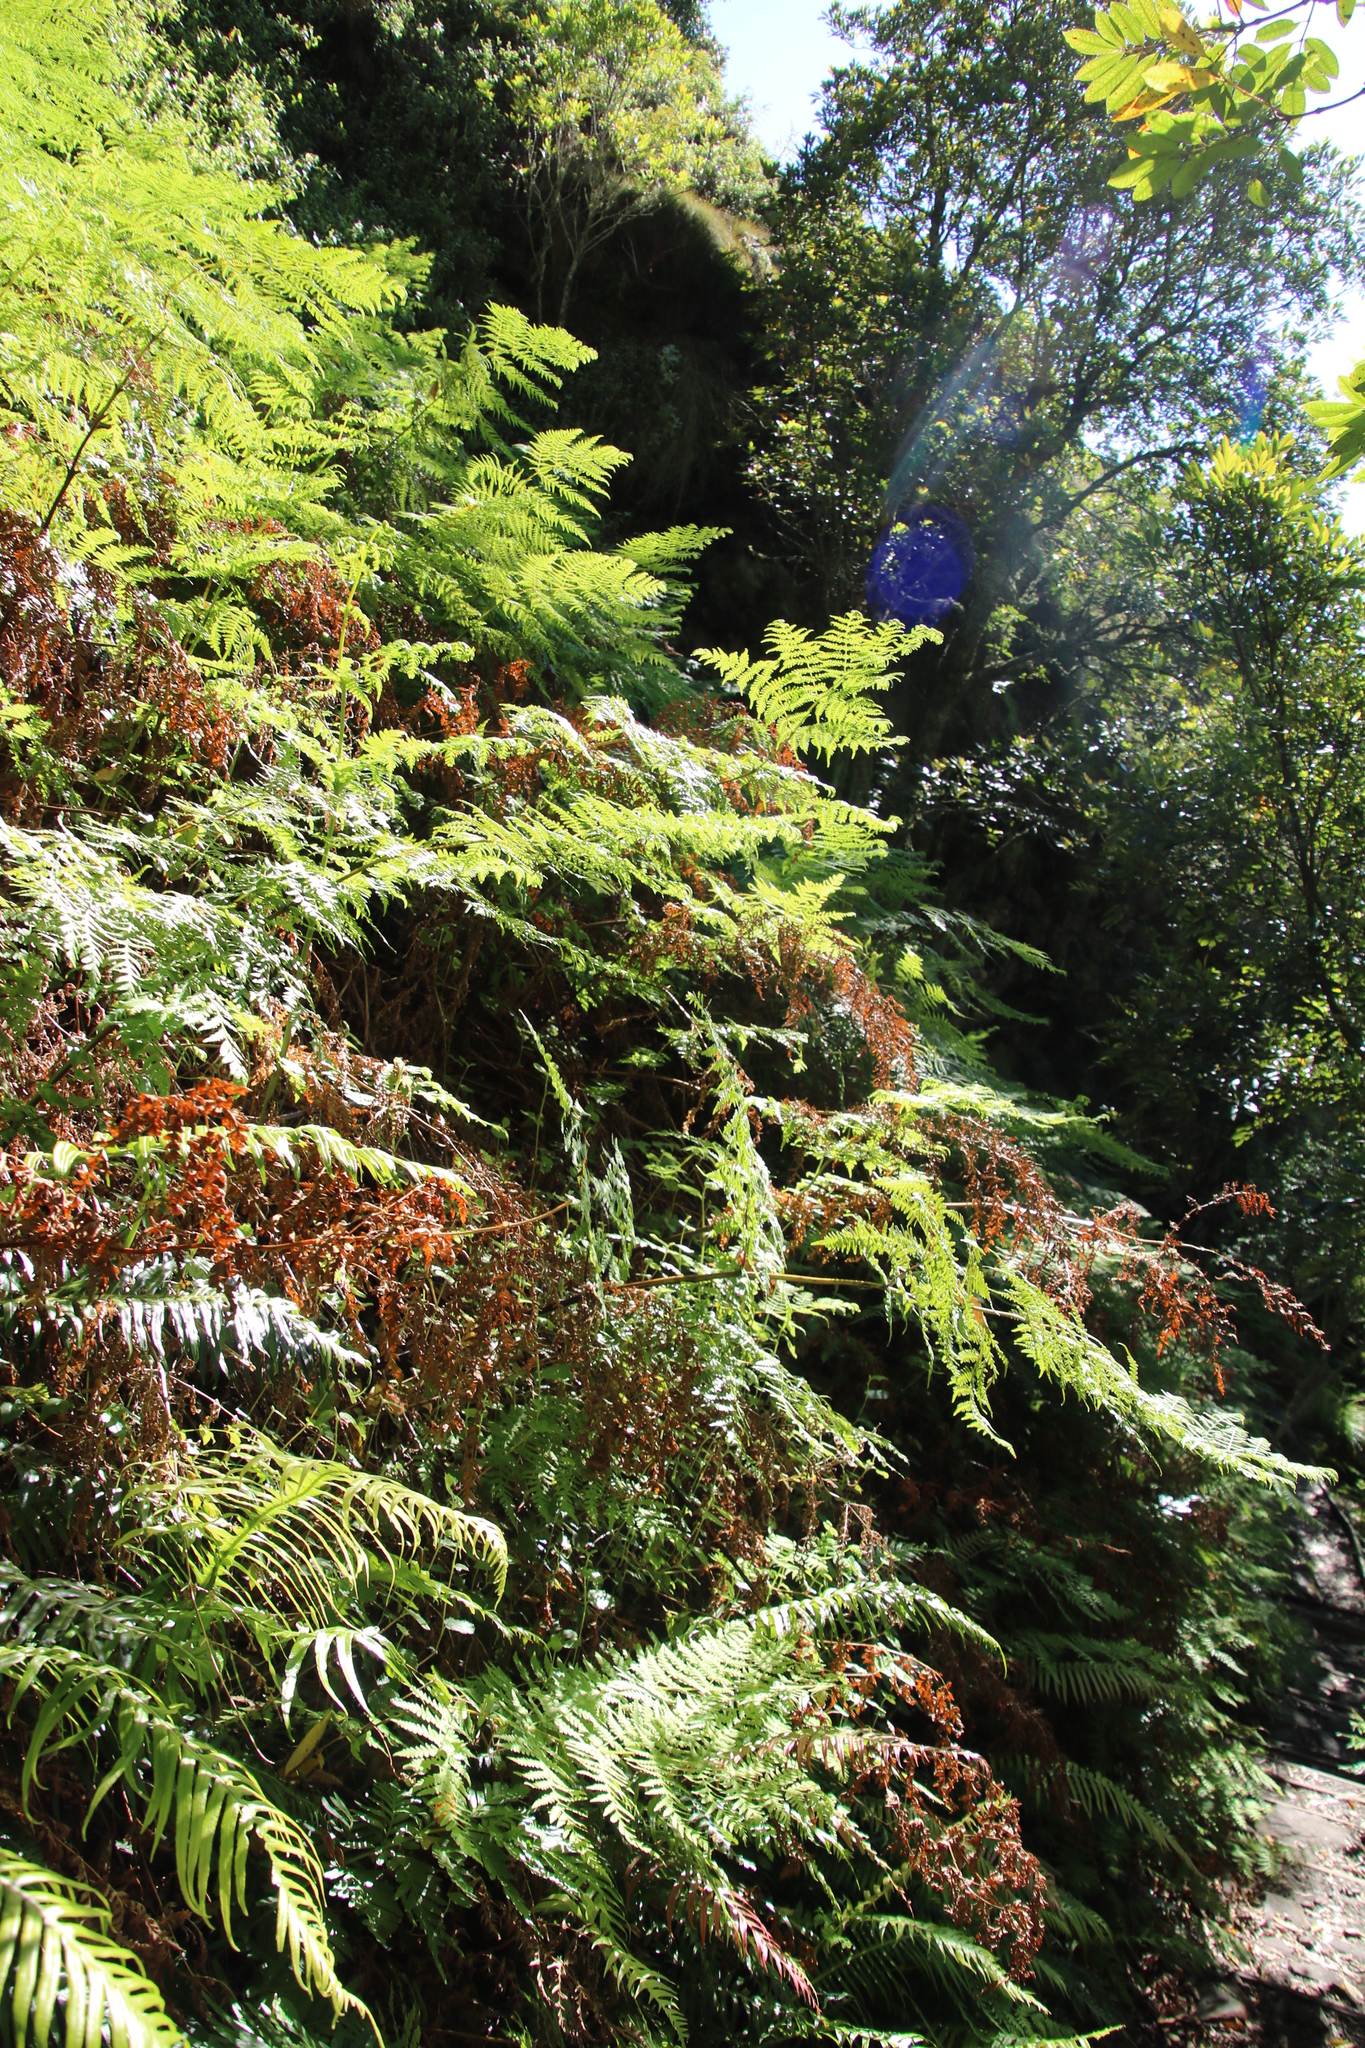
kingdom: Plantae
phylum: Tracheophyta
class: Polypodiopsida
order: Osmundales
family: Osmundaceae
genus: Todea
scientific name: Todea barbara
